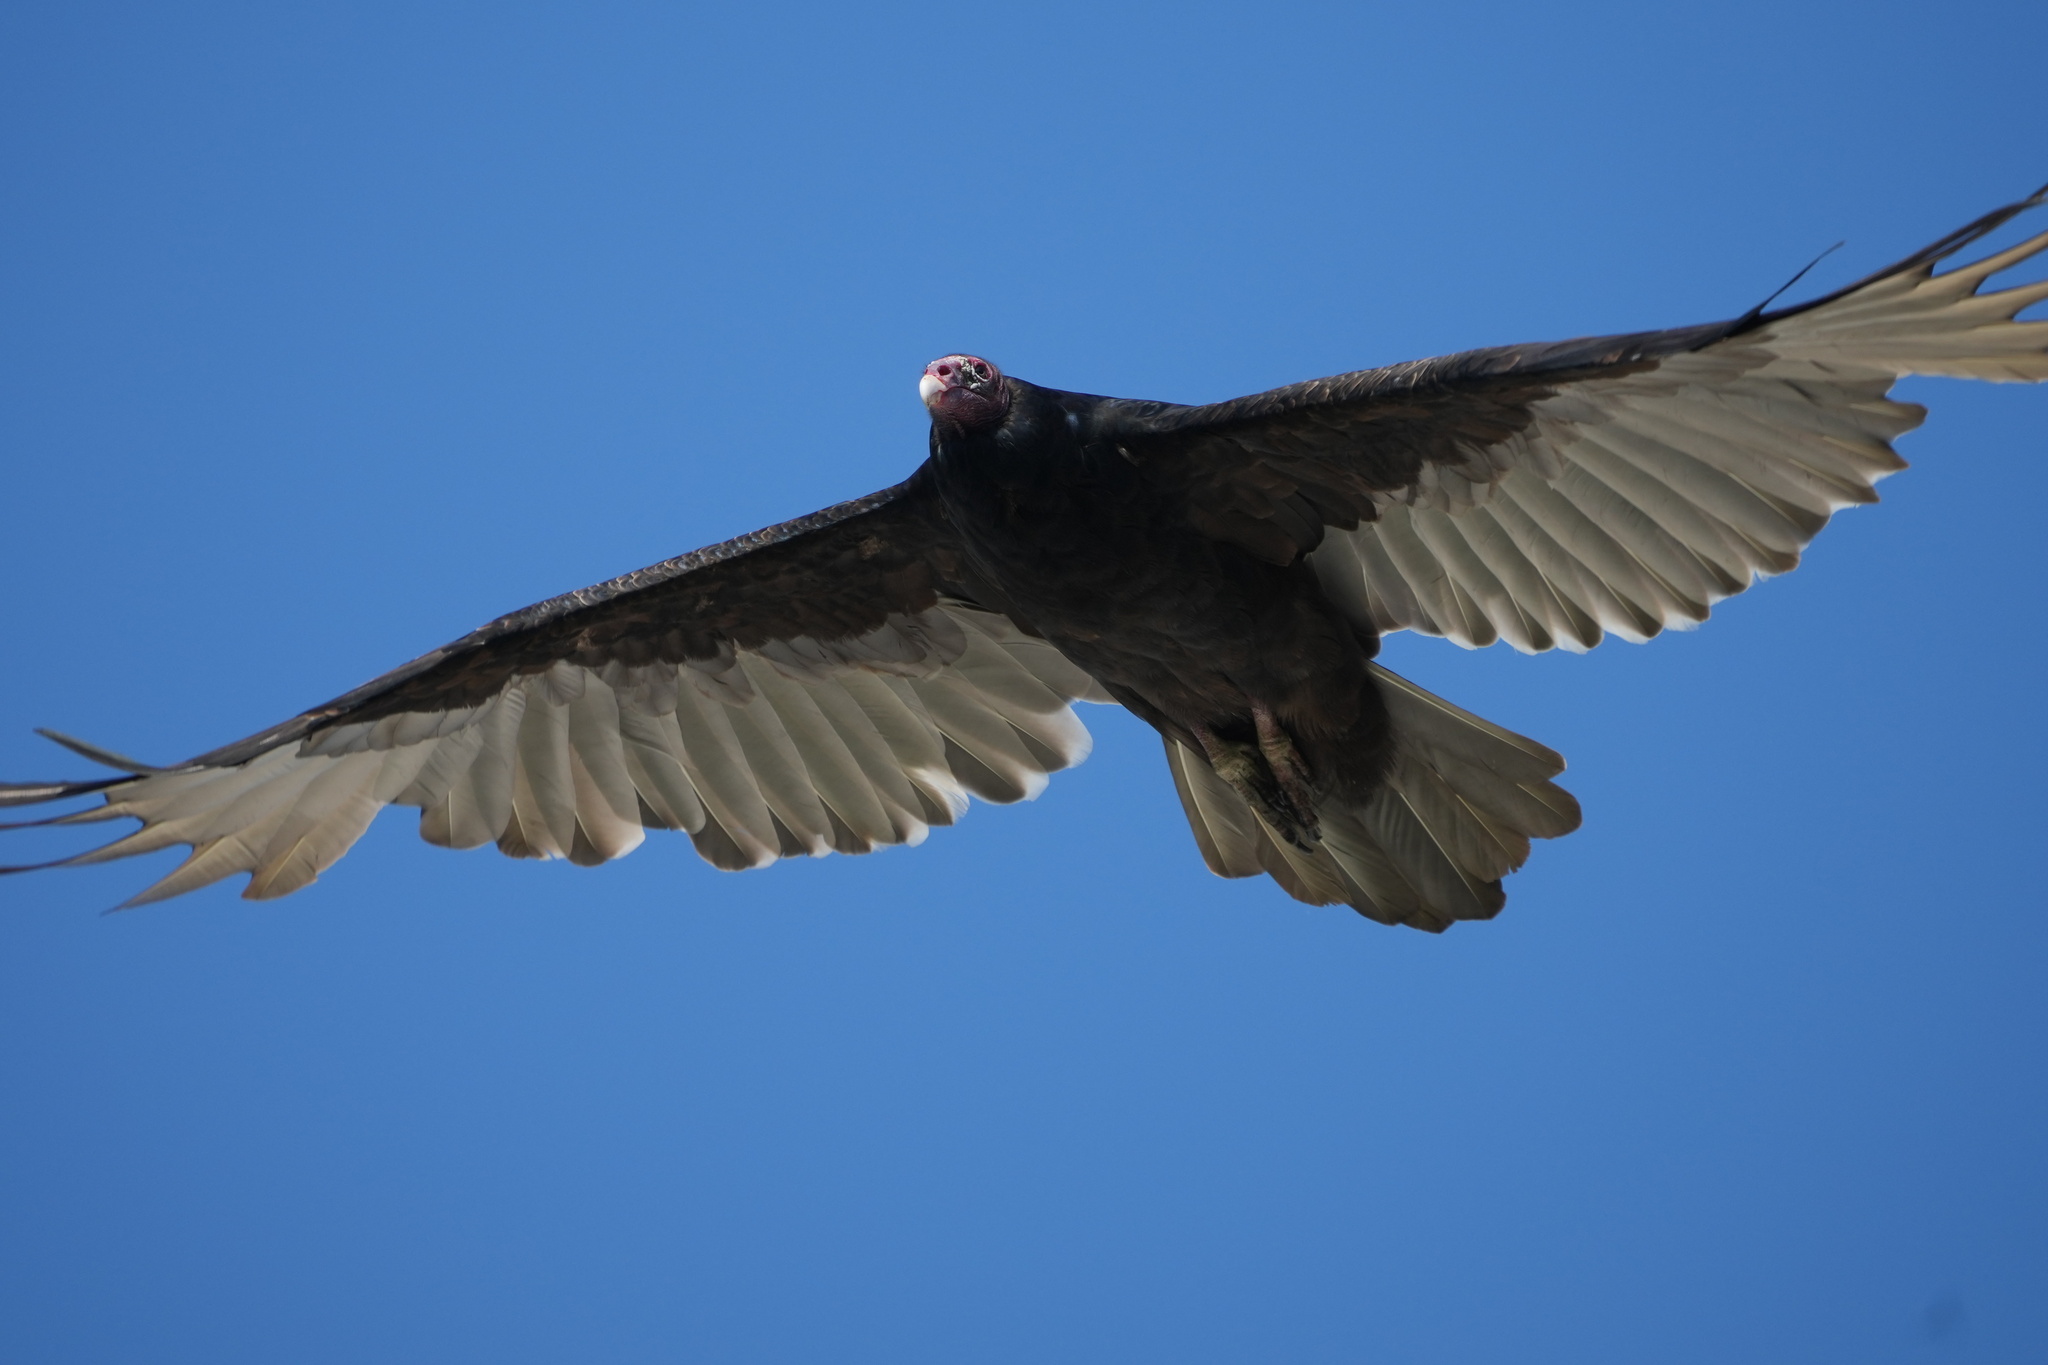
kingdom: Animalia
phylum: Chordata
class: Aves
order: Accipitriformes
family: Cathartidae
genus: Cathartes
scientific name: Cathartes aura
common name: Turkey vulture
